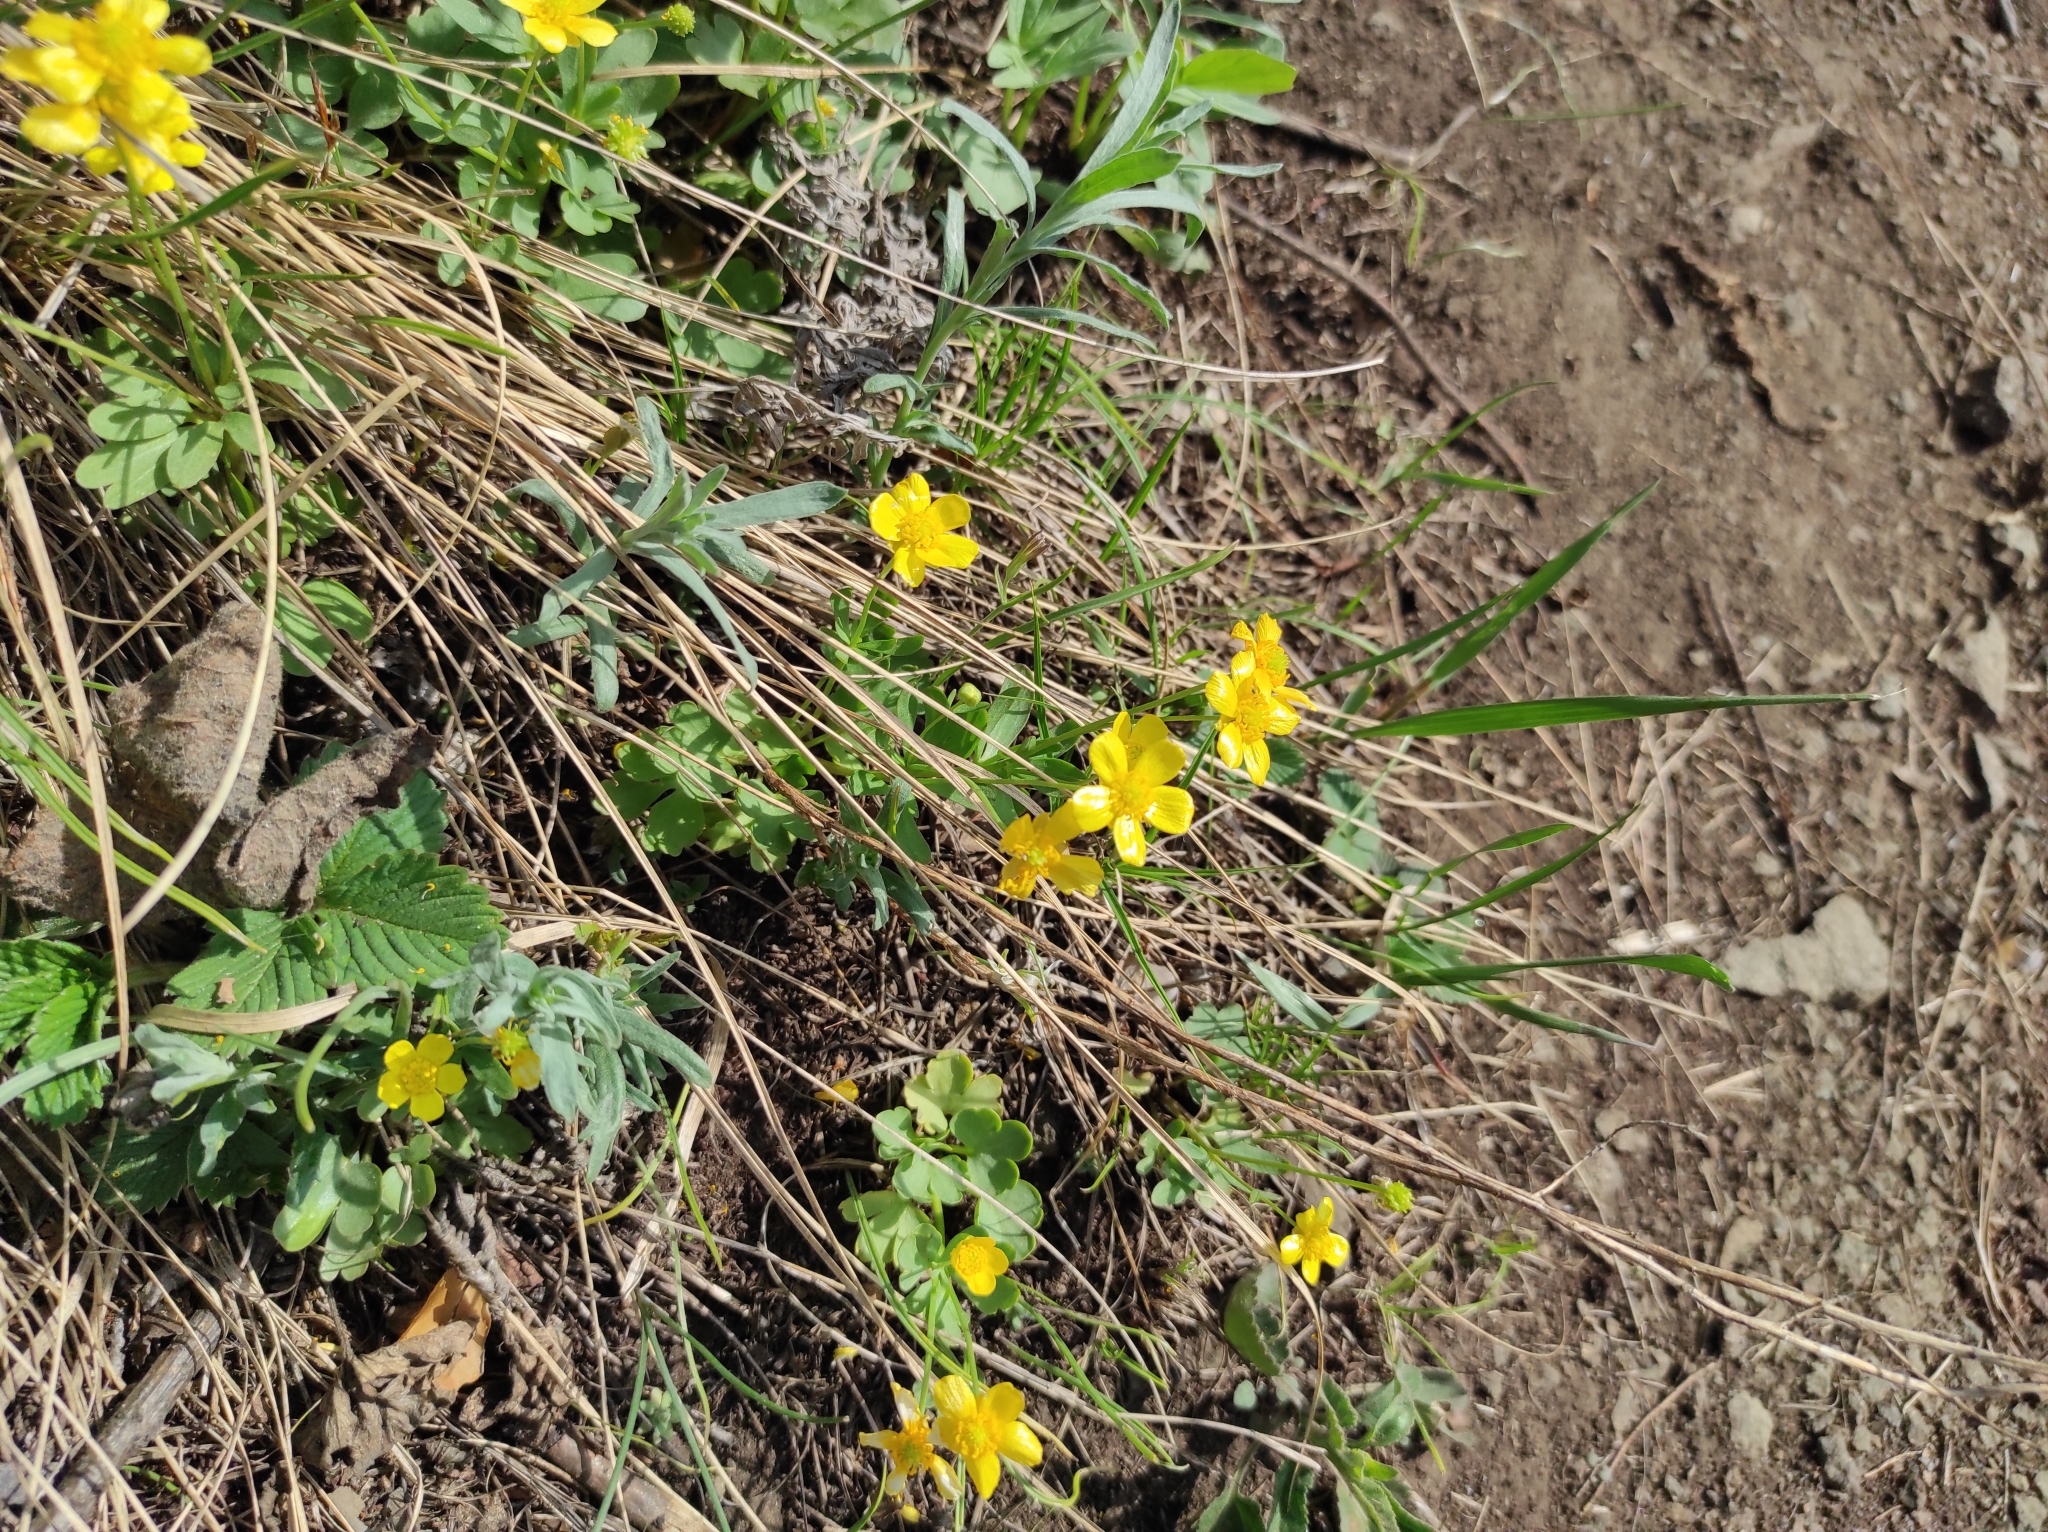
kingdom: Plantae
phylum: Tracheophyta
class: Magnoliopsida
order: Ranunculales
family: Ranunculaceae
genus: Ranunculus
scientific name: Ranunculus polyrhizos
